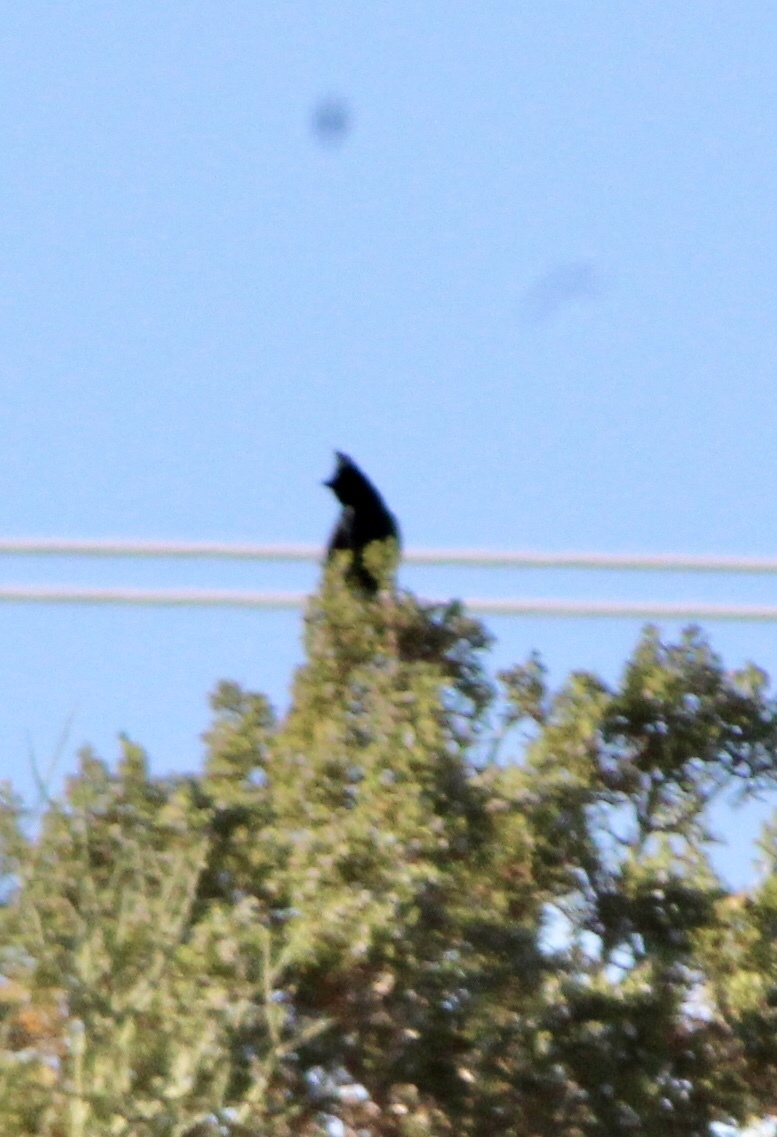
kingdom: Animalia
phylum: Chordata
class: Aves
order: Passeriformes
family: Ptilogonatidae
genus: Phainopepla
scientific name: Phainopepla nitens
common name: Phainopepla
